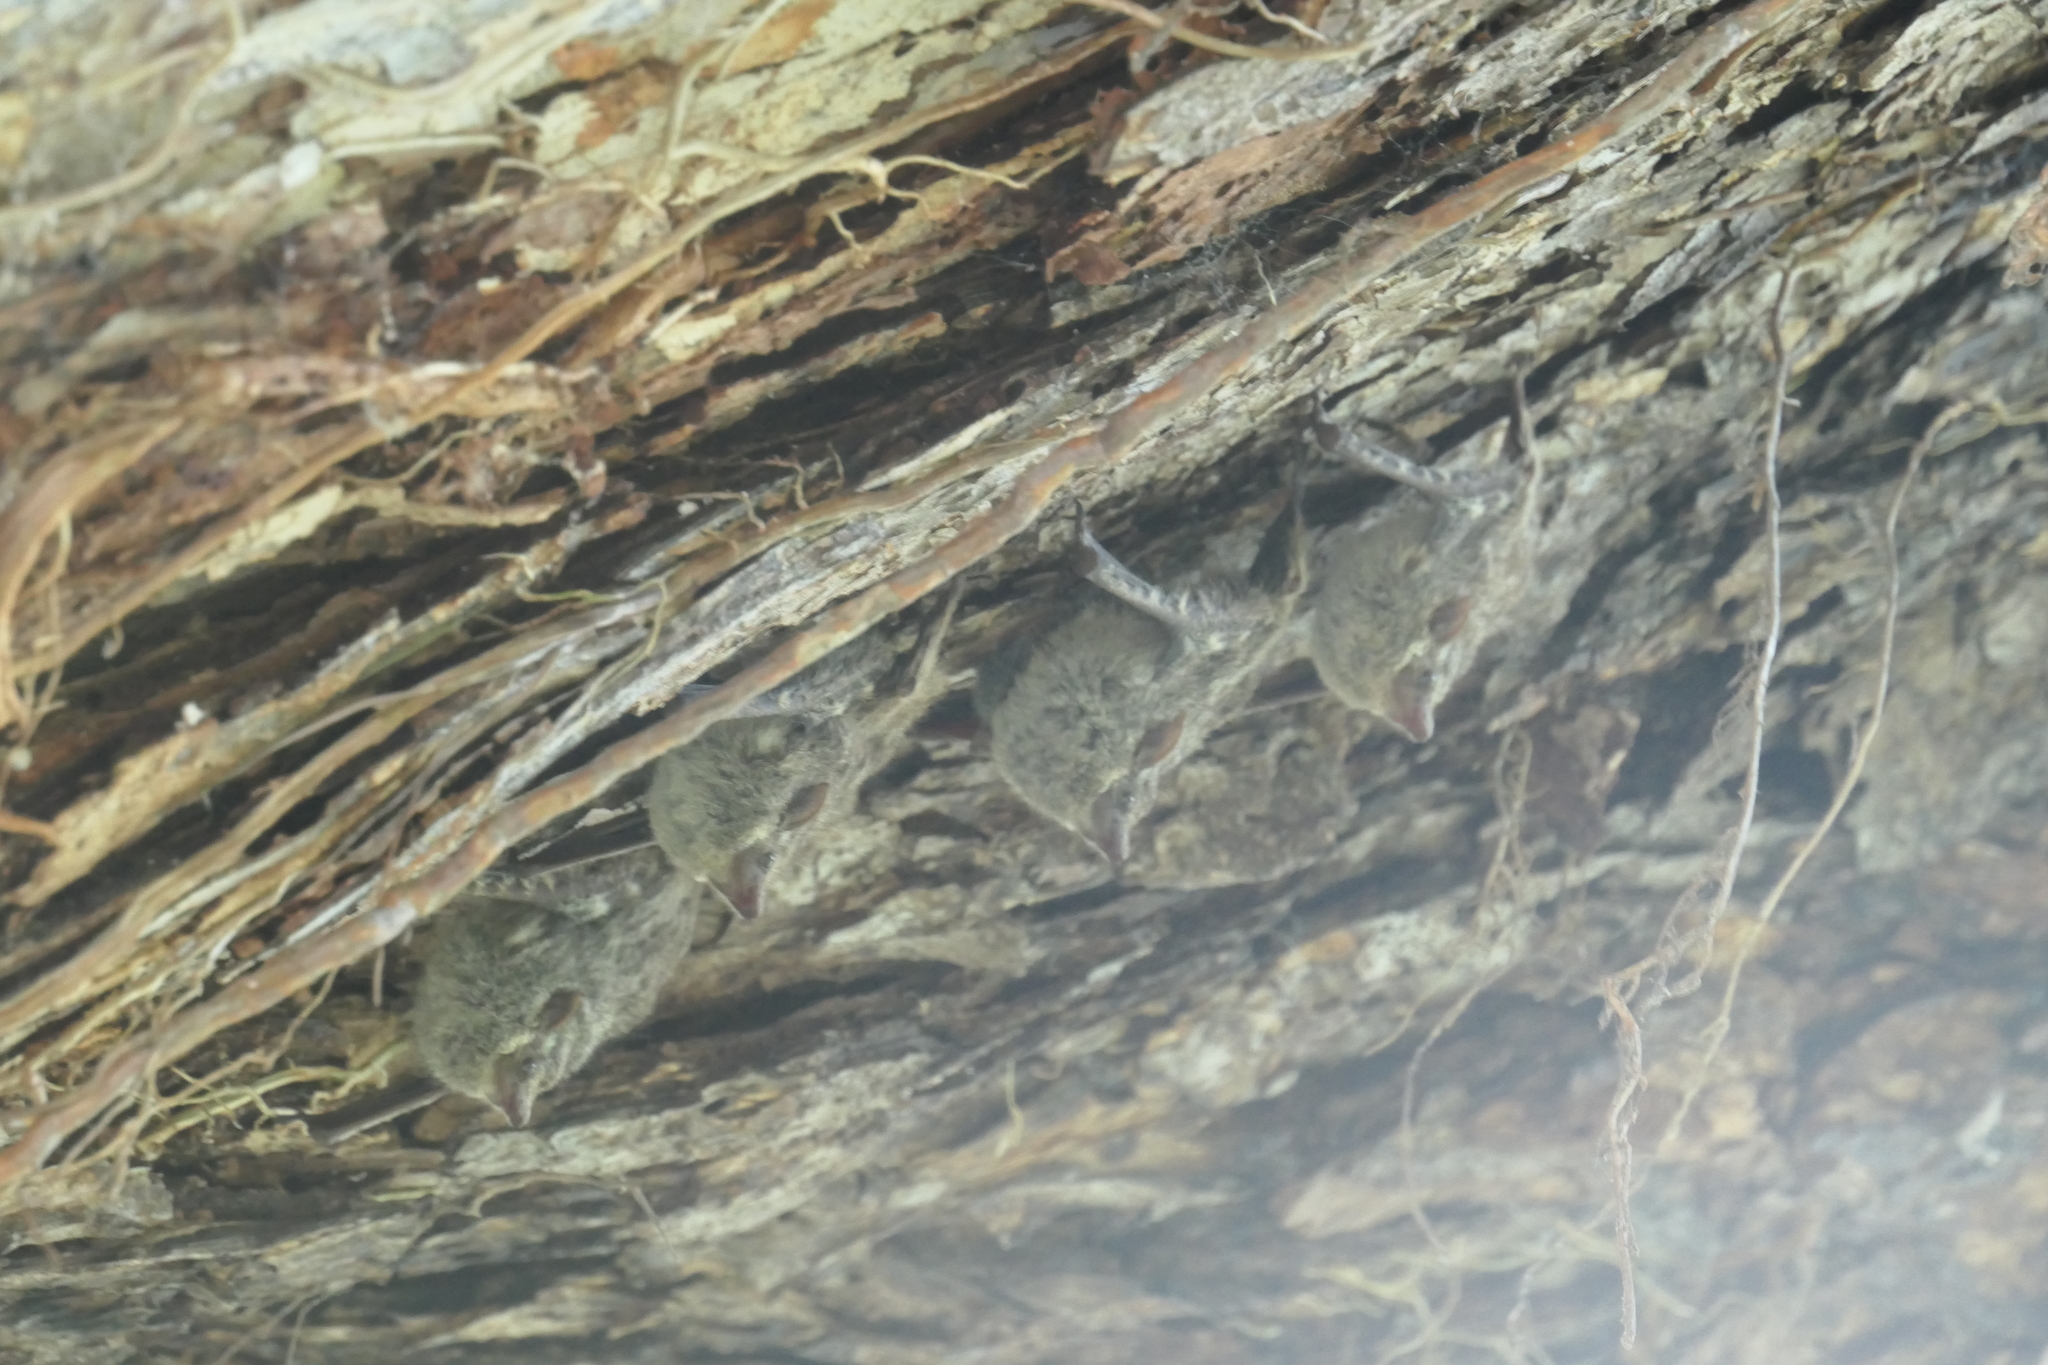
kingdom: Animalia
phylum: Chordata
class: Mammalia
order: Chiroptera
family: Emballonuridae
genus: Rhynchonycteris
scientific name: Rhynchonycteris naso
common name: Proboscis bat
